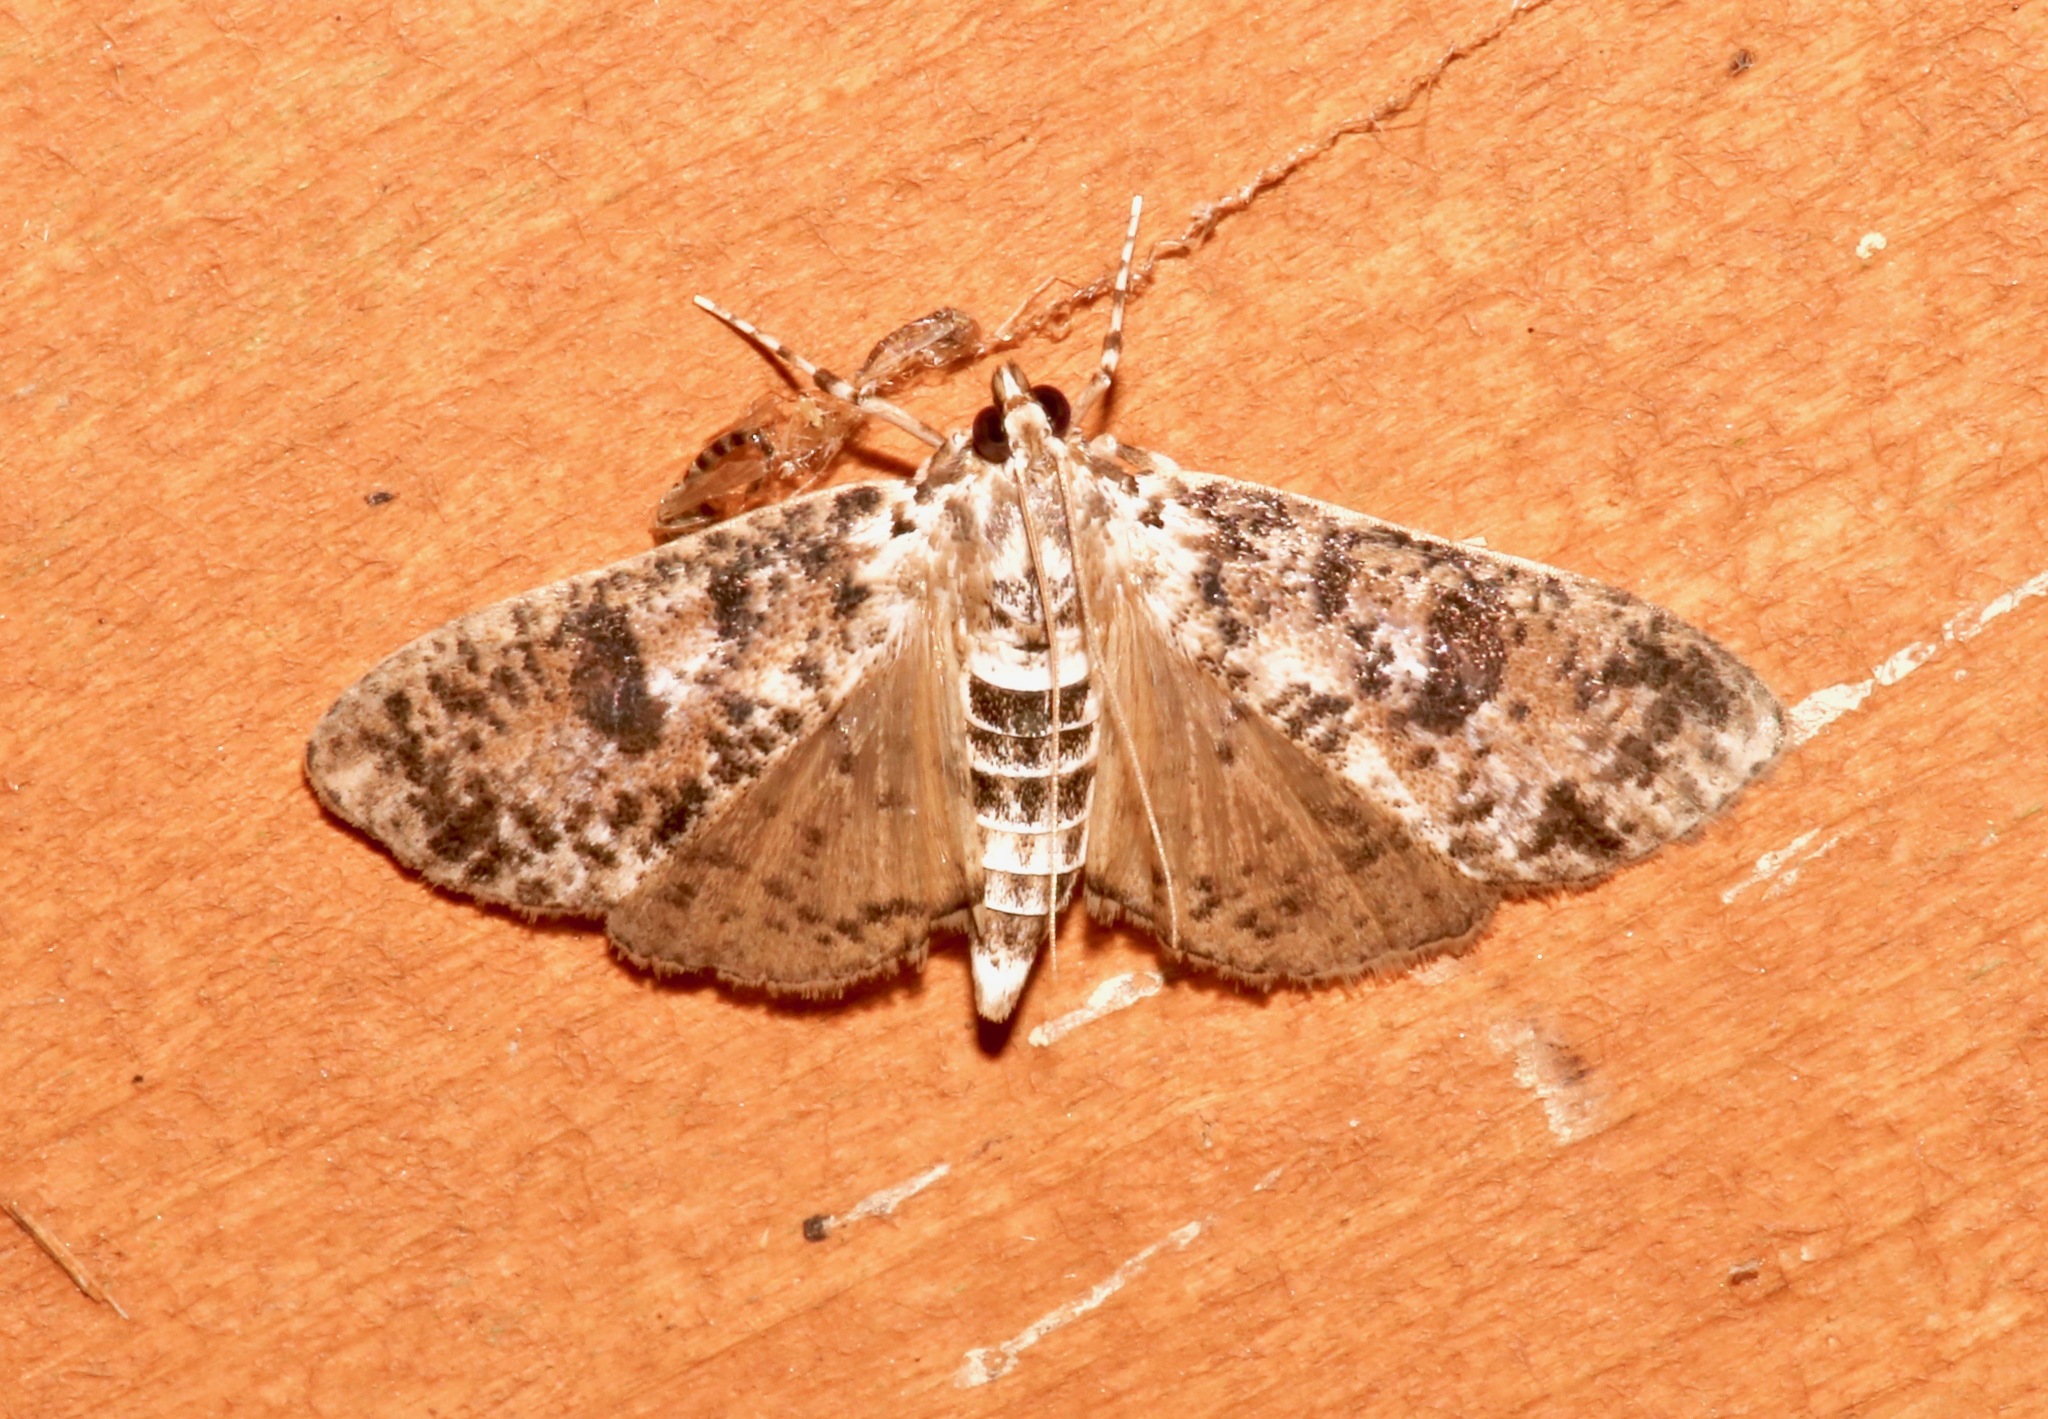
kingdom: Animalia
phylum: Arthropoda
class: Insecta
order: Lepidoptera
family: Crambidae
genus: Palpita
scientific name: Palpita magniferalis
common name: Splendid palpita moth
